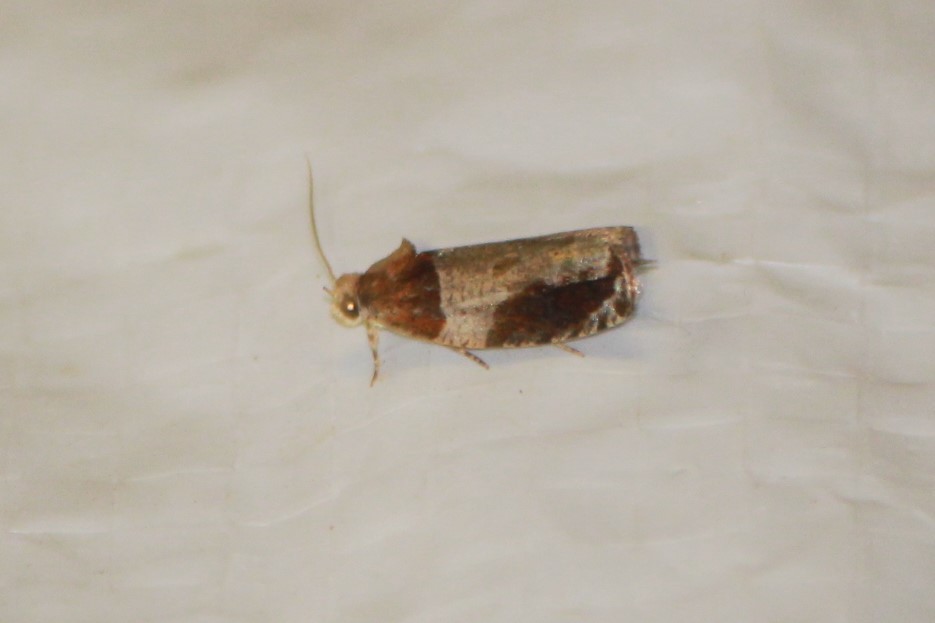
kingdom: Animalia
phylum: Arthropoda
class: Insecta
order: Lepidoptera
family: Tortricidae
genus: Olethreutes
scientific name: Olethreutes ferriferana
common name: Hydrangea leaftier moth
